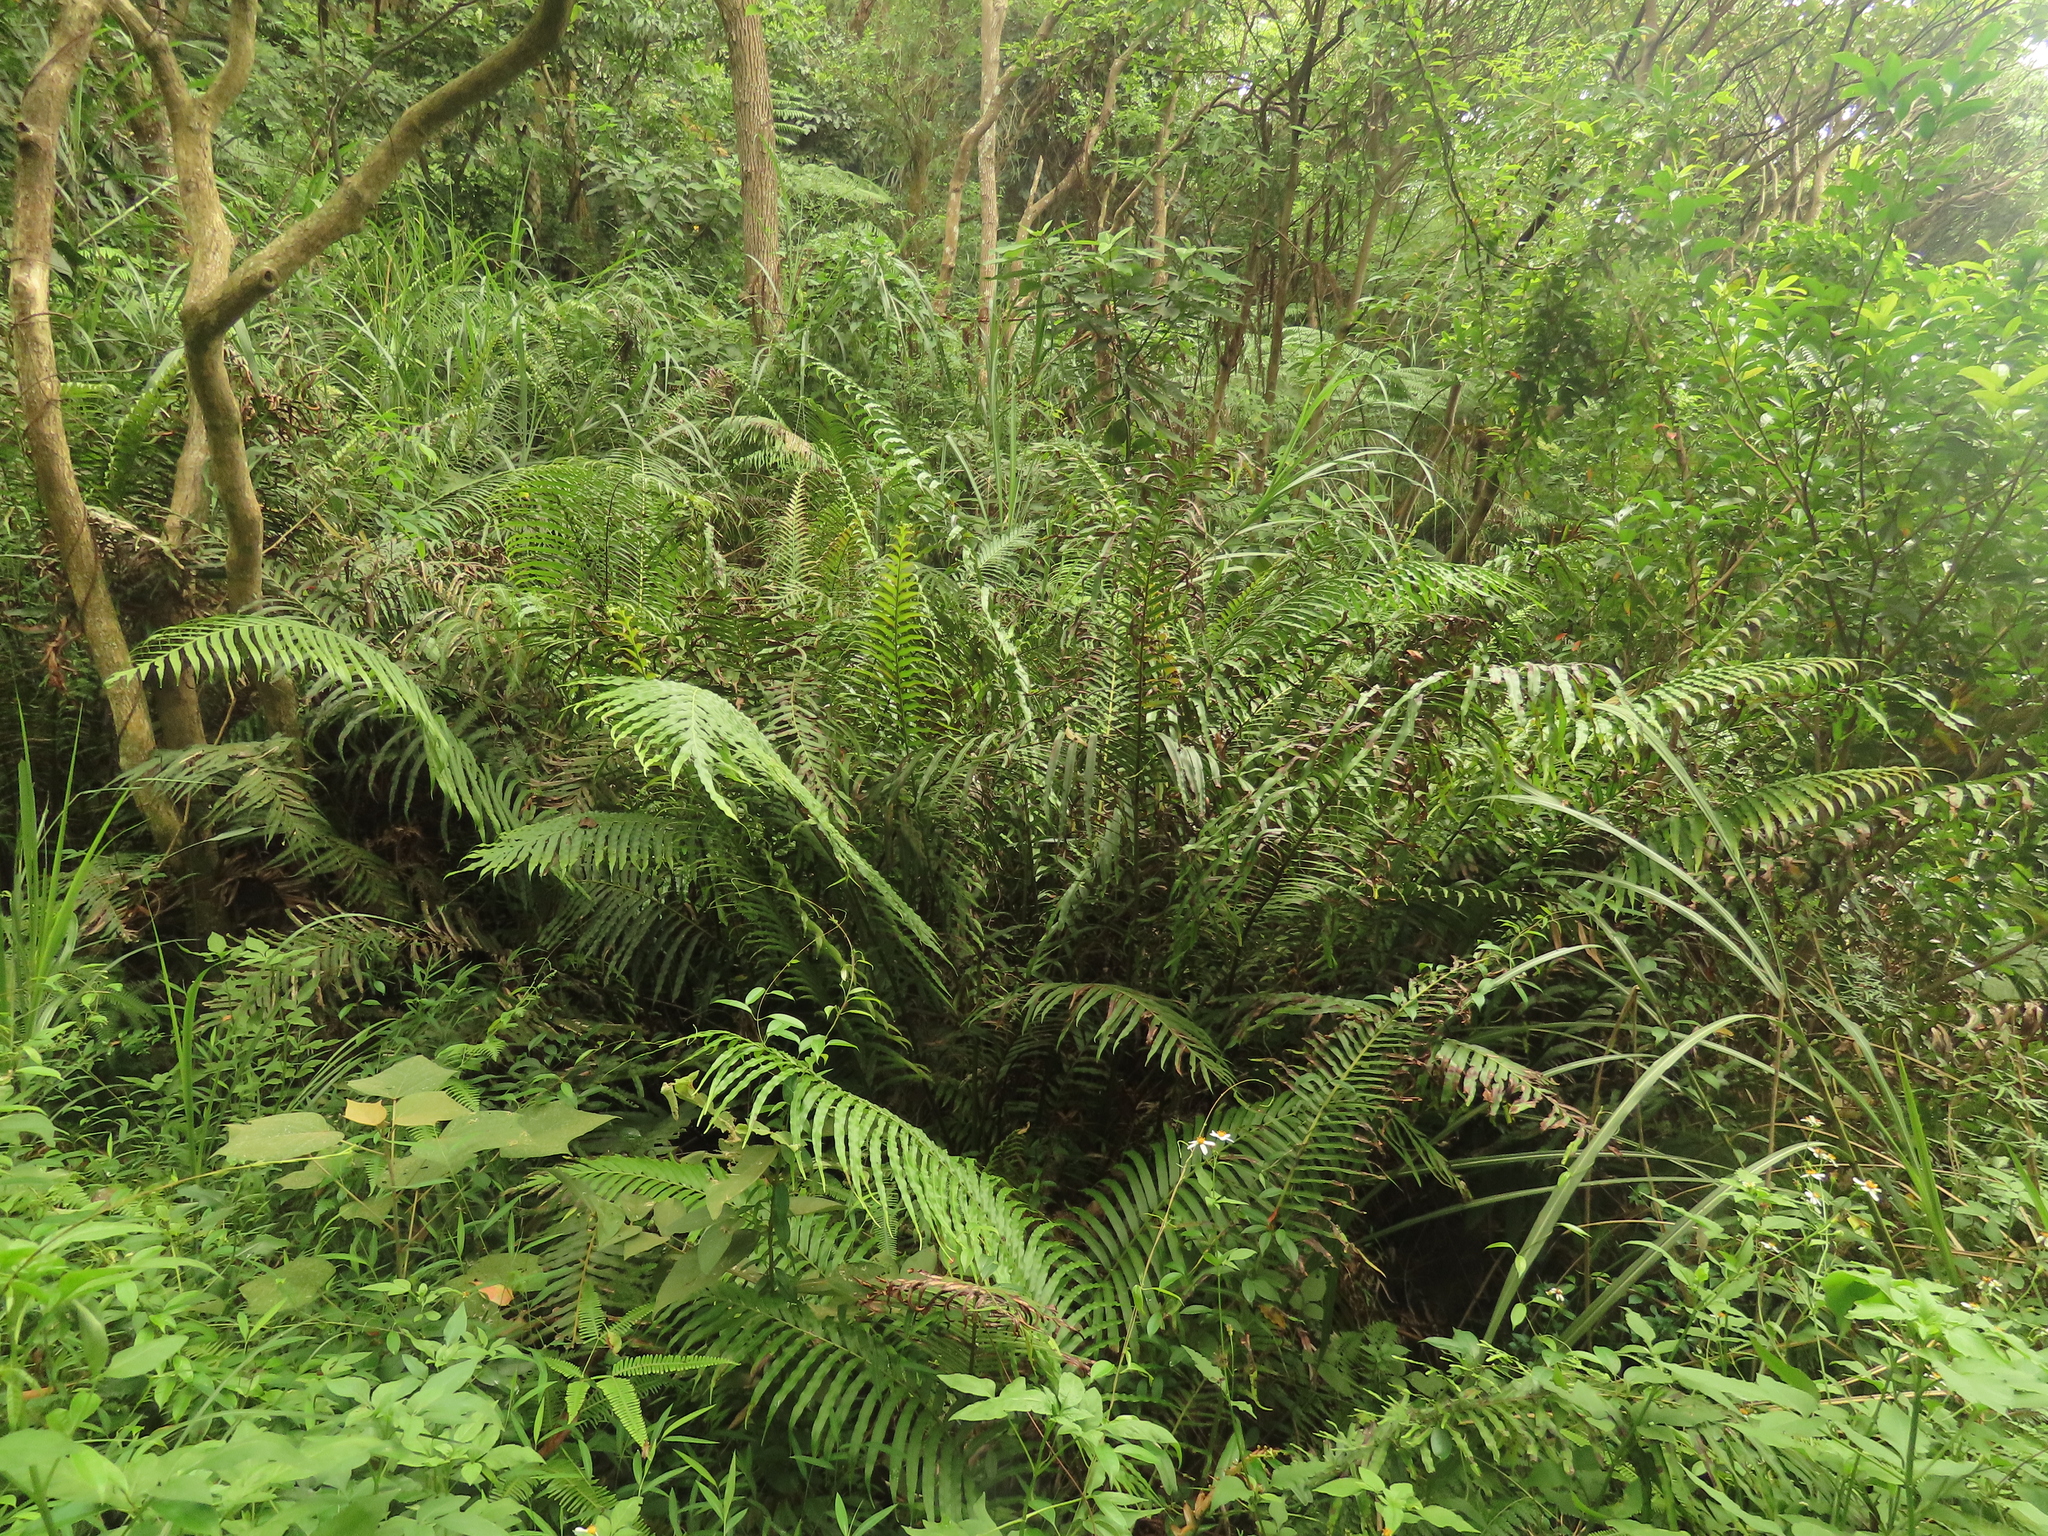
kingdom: Plantae
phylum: Tracheophyta
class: Polypodiopsida
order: Polypodiales
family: Blechnaceae
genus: Blechnopsis
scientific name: Blechnopsis orientalis
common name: Oriental blechnum
